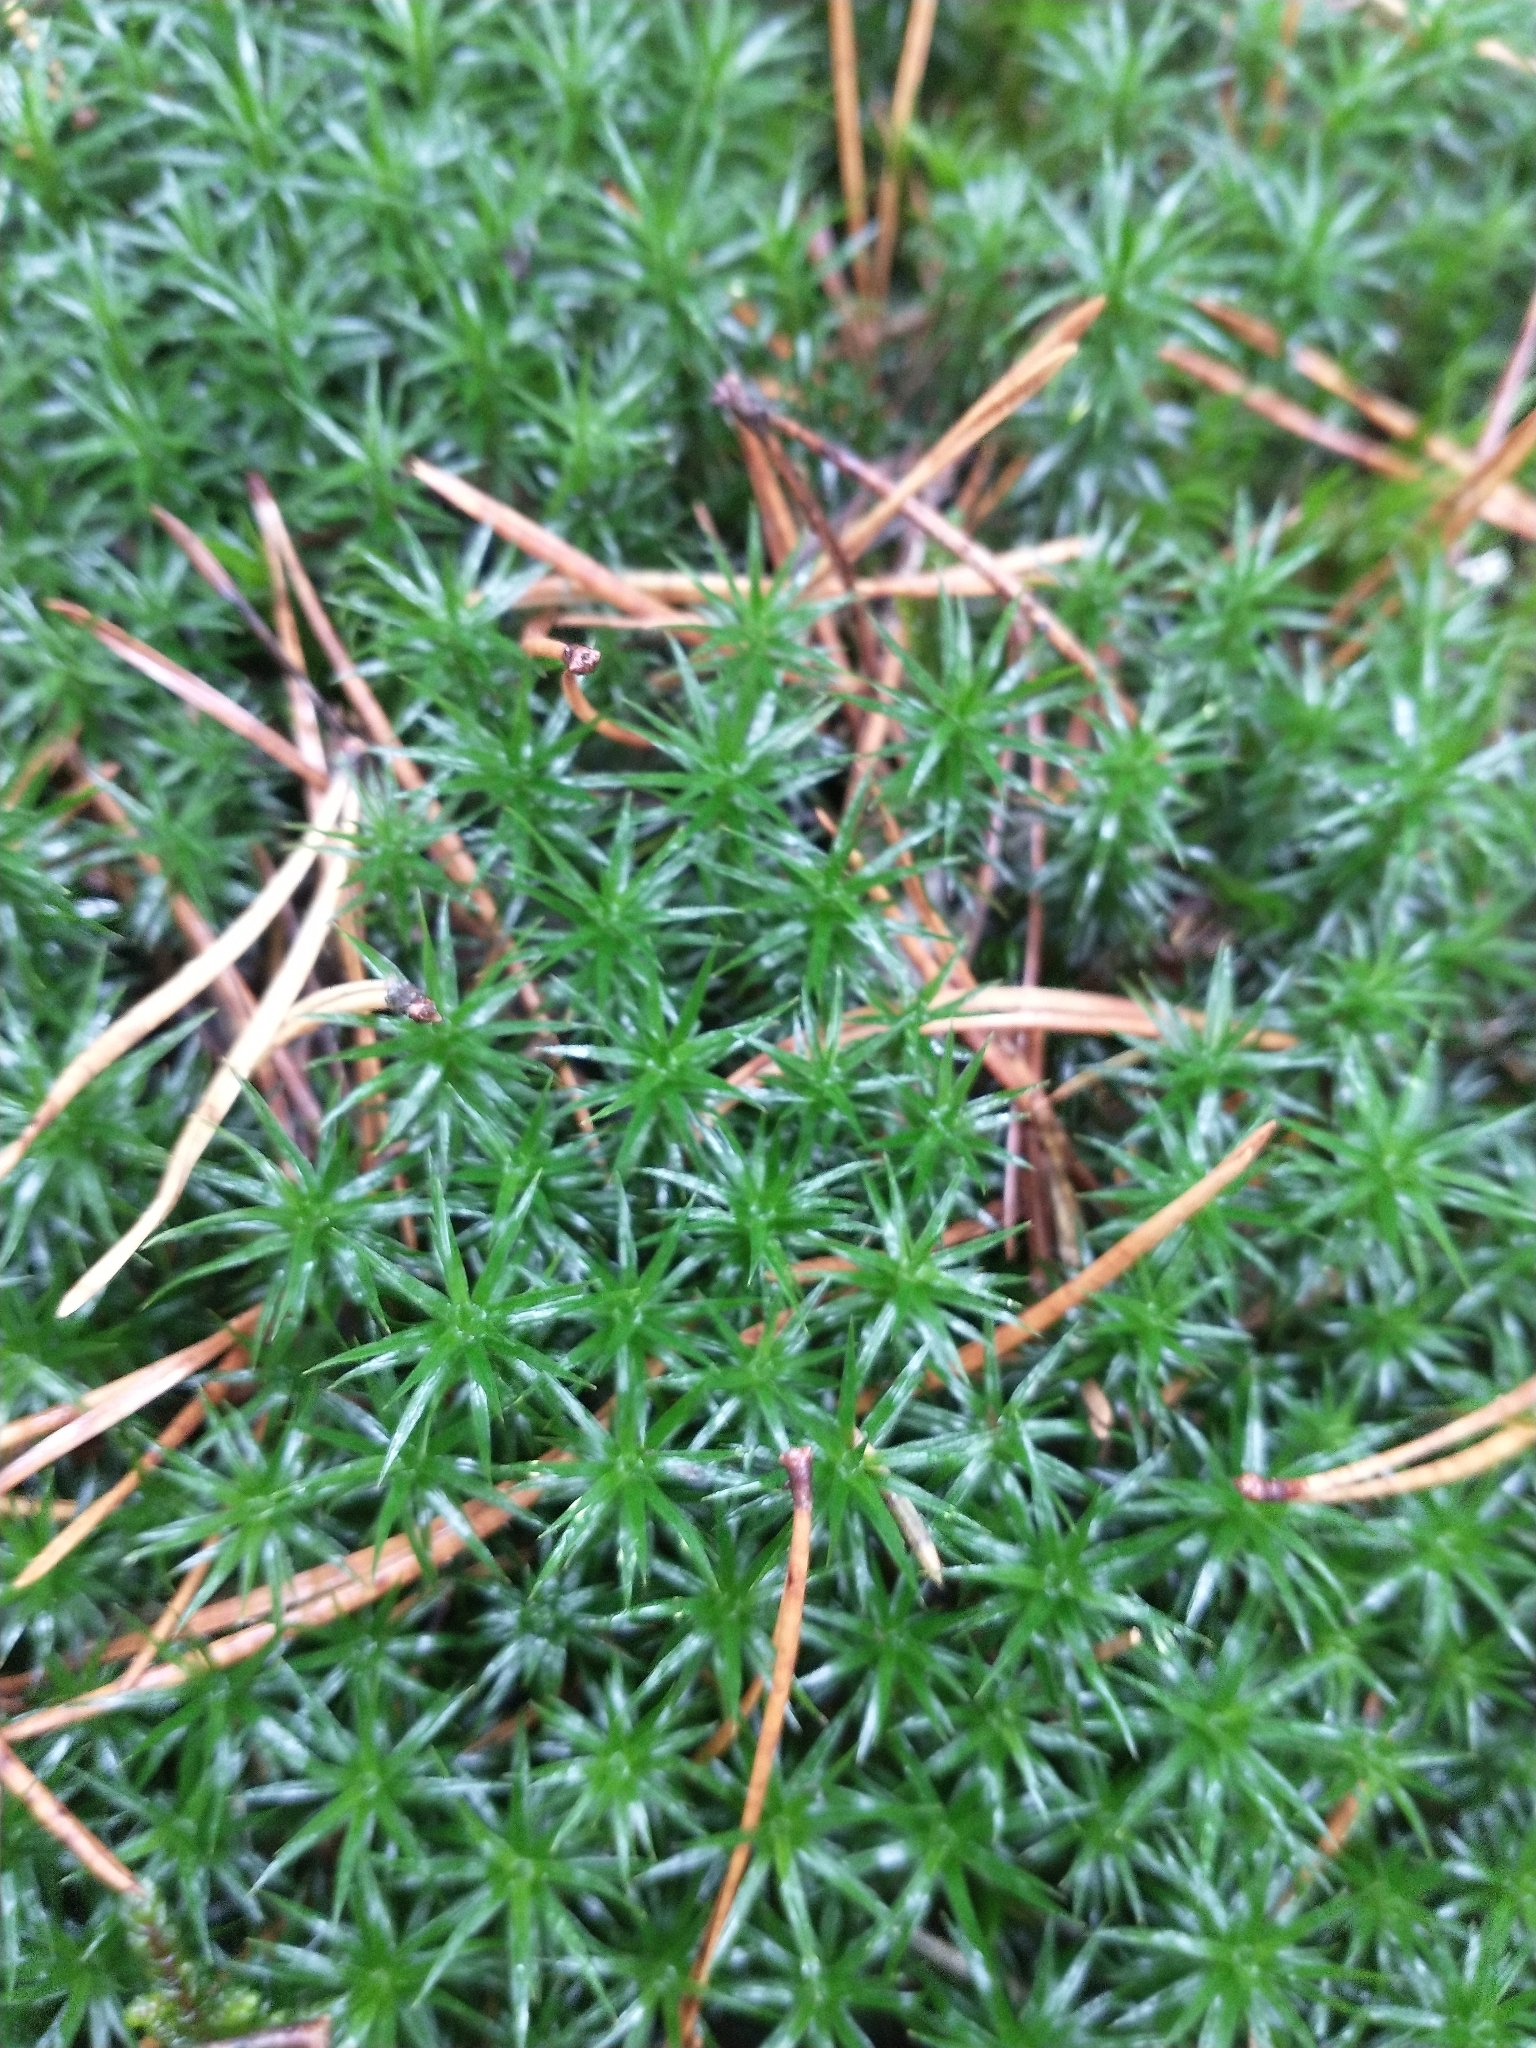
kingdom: Plantae
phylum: Bryophyta
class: Polytrichopsida
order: Polytrichales
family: Polytrichaceae
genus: Polytrichum
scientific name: Polytrichum commune
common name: Common haircap
